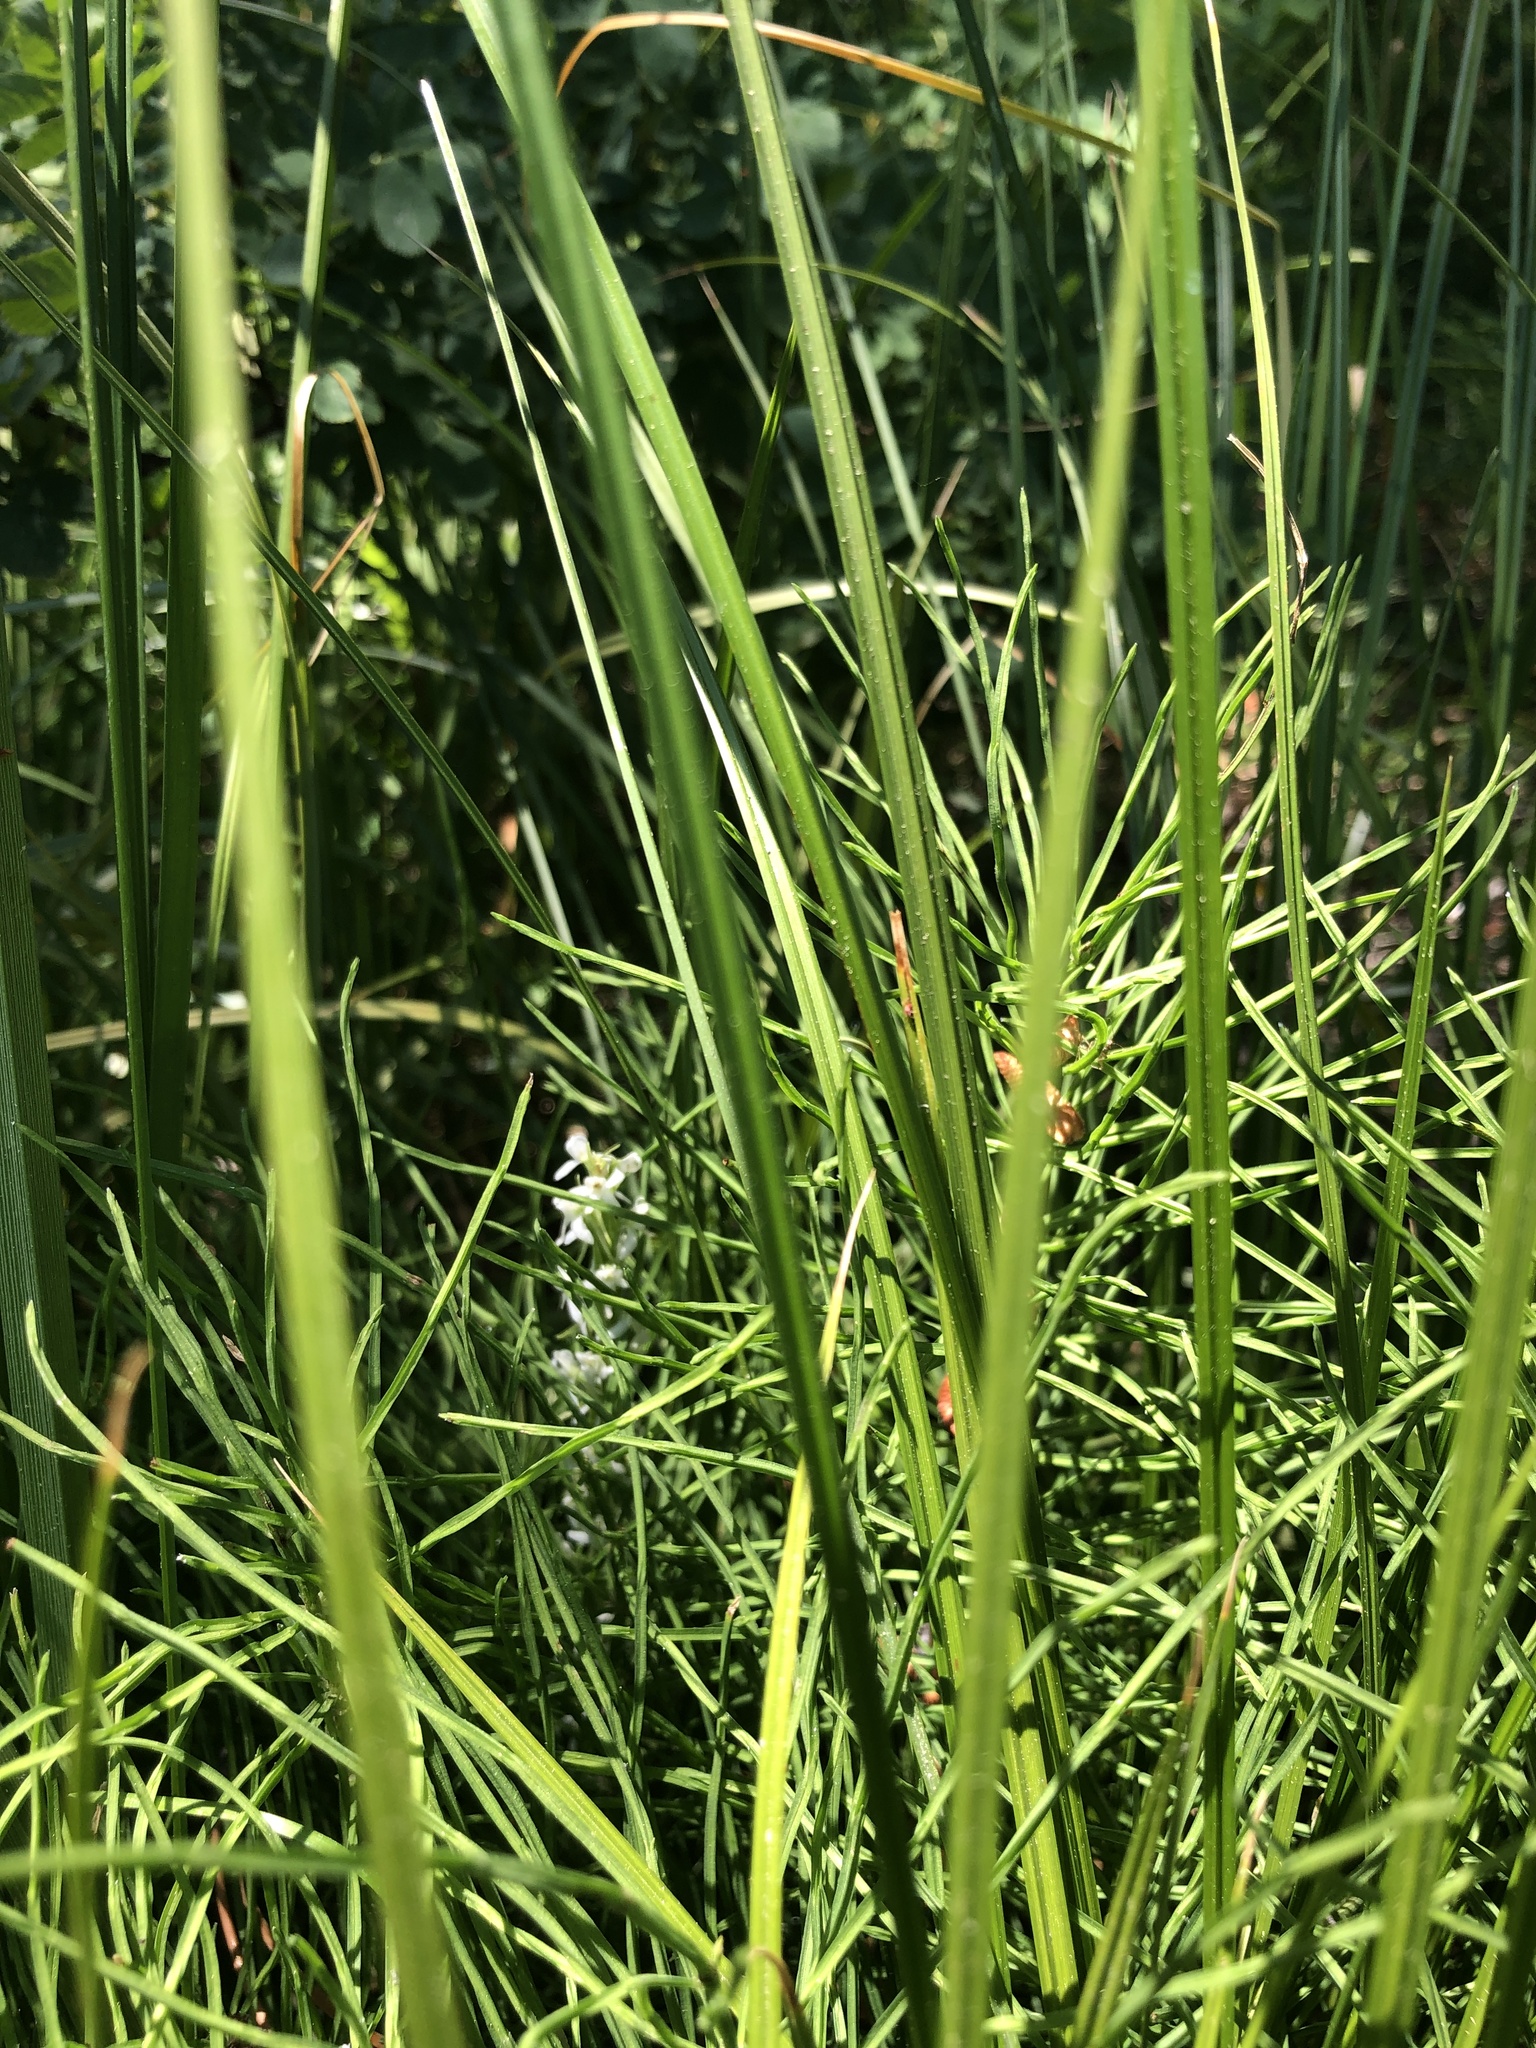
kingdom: Plantae
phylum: Tracheophyta
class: Liliopsida
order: Asparagales
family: Orchidaceae
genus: Platanthera
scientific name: Platanthera dilatata
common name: Bog candles
